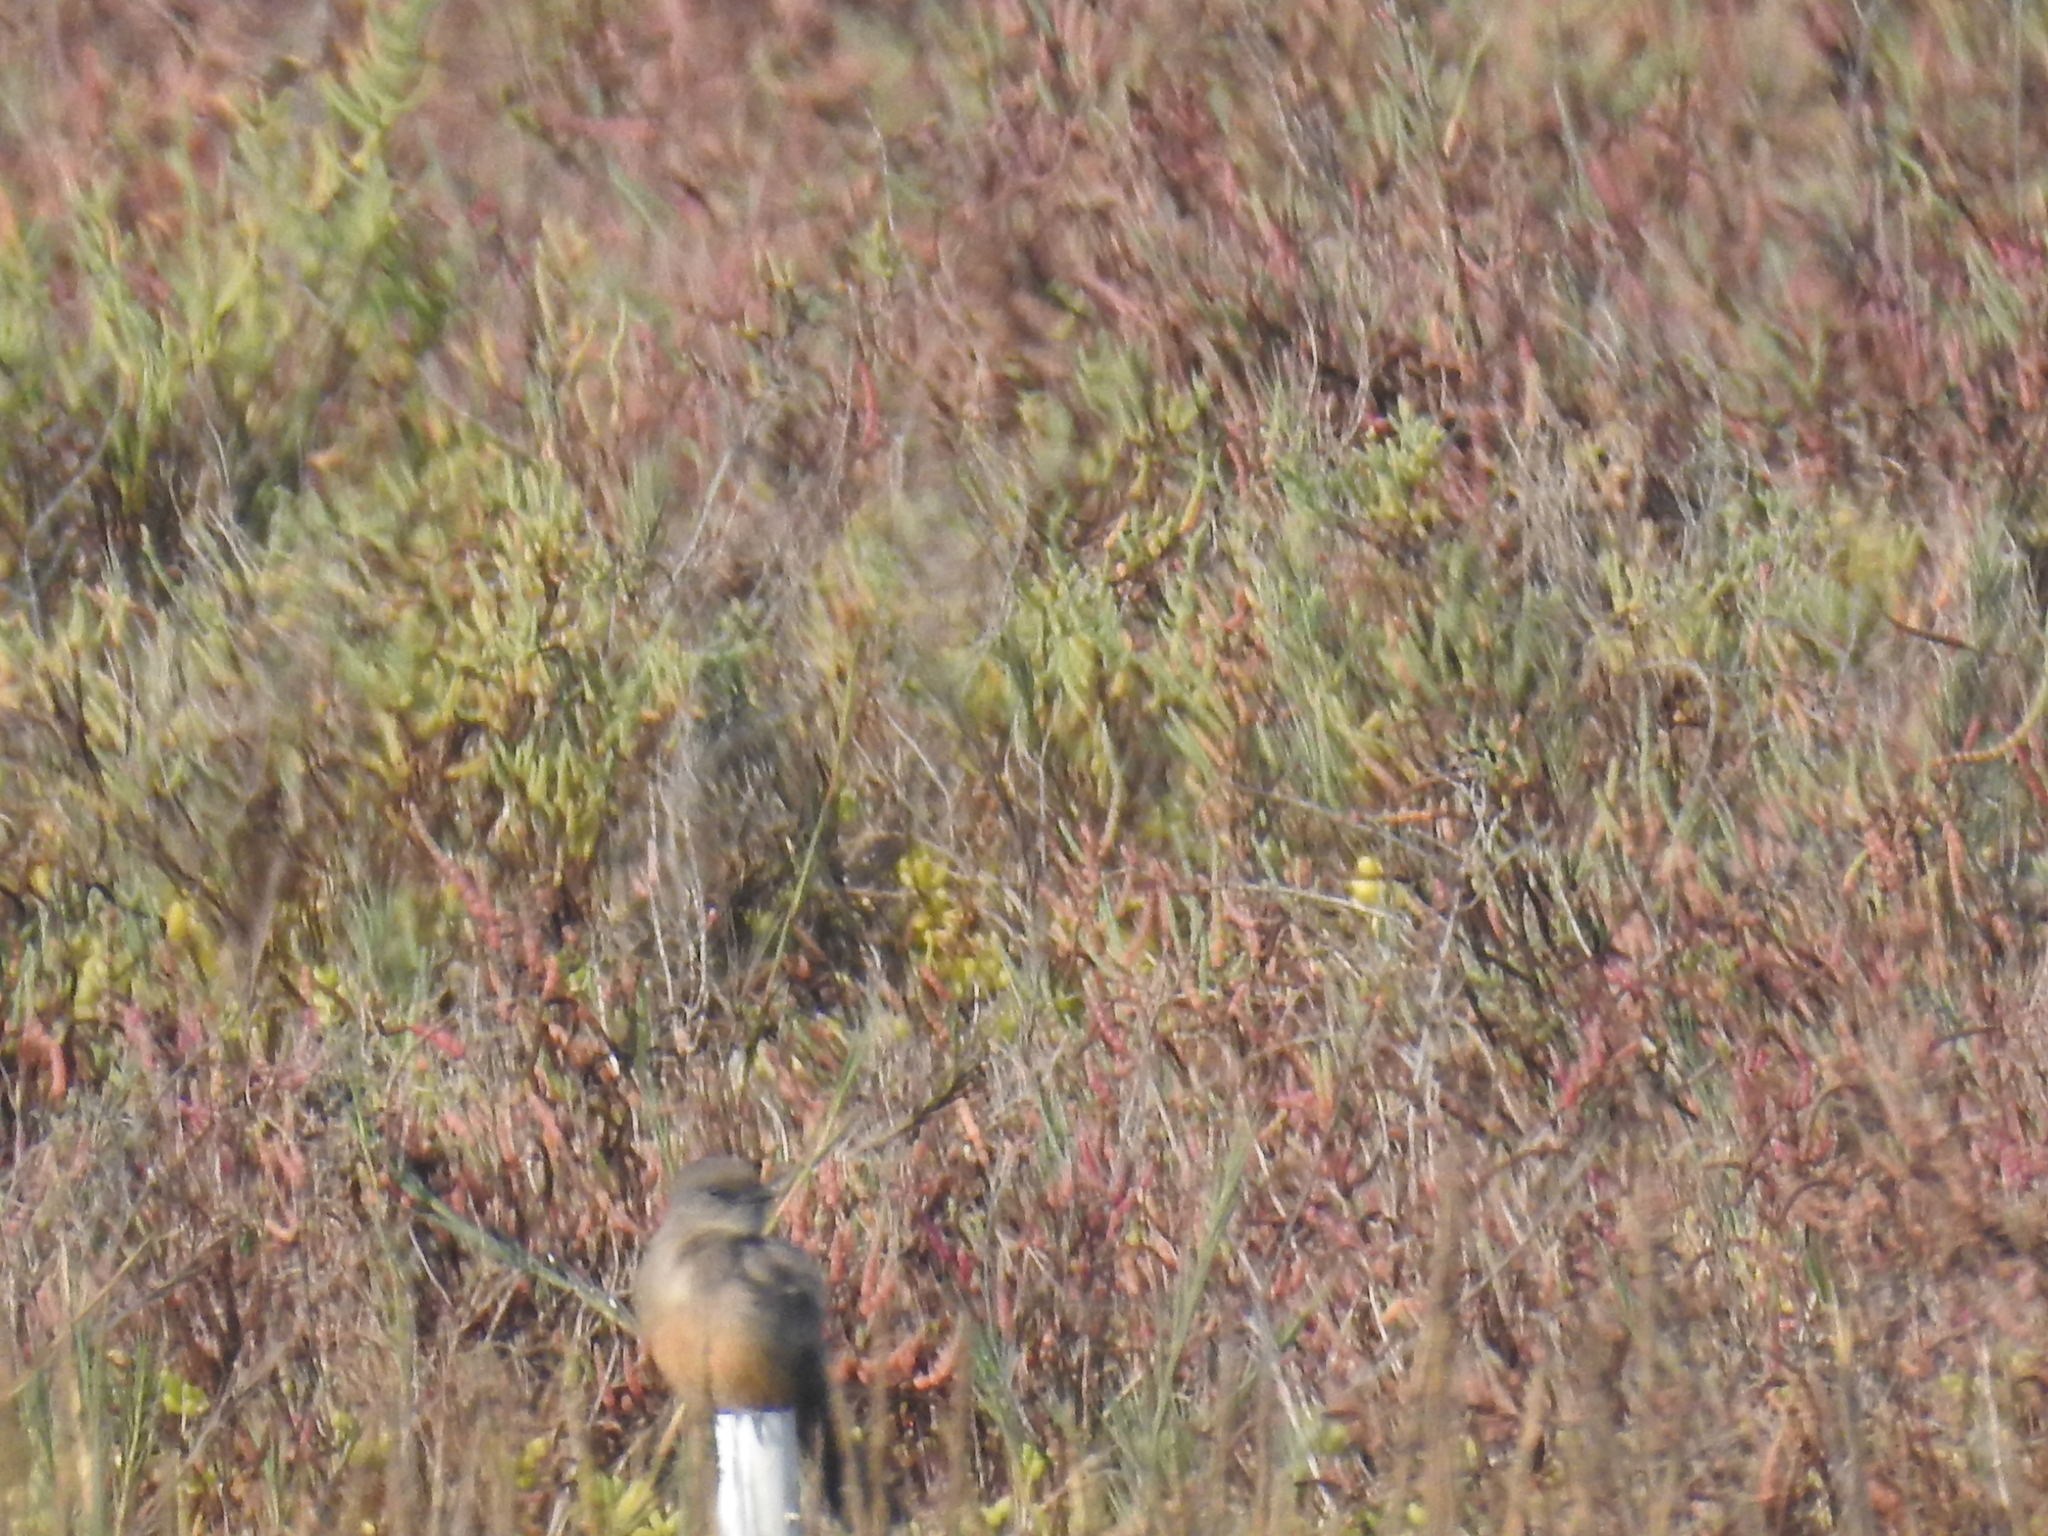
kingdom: Animalia
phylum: Chordata
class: Aves
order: Passeriformes
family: Tyrannidae
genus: Sayornis
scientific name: Sayornis saya
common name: Say's phoebe
